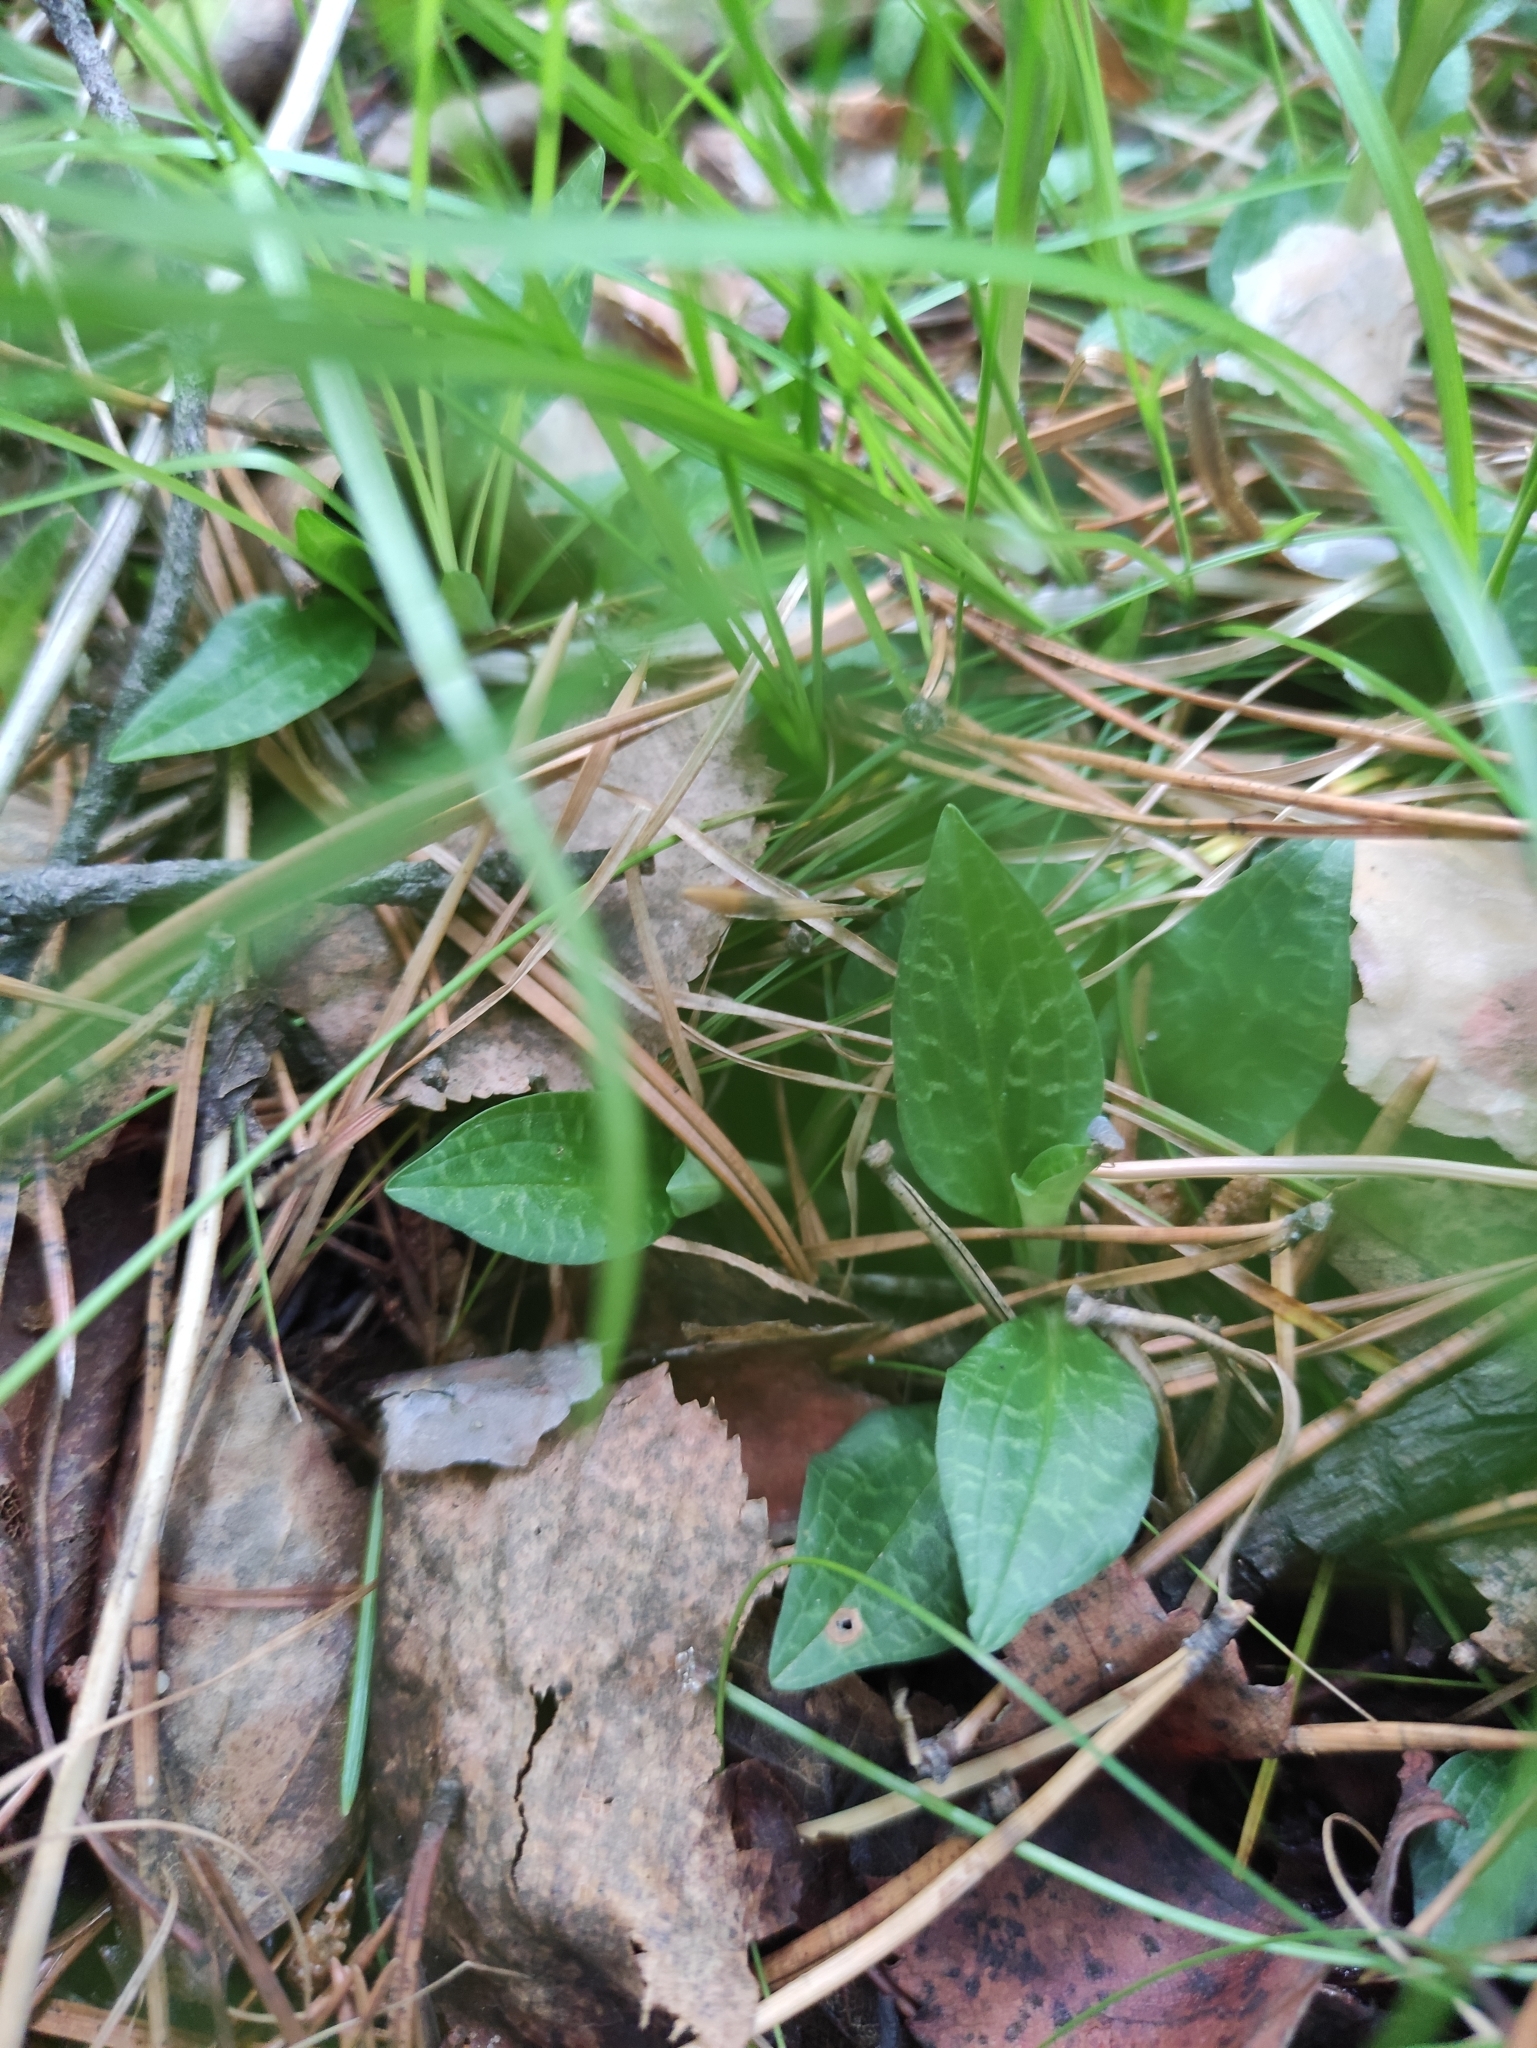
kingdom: Plantae
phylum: Tracheophyta
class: Liliopsida
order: Asparagales
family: Orchidaceae
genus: Goodyera
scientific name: Goodyera repens
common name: Creeping lady's-tresses
